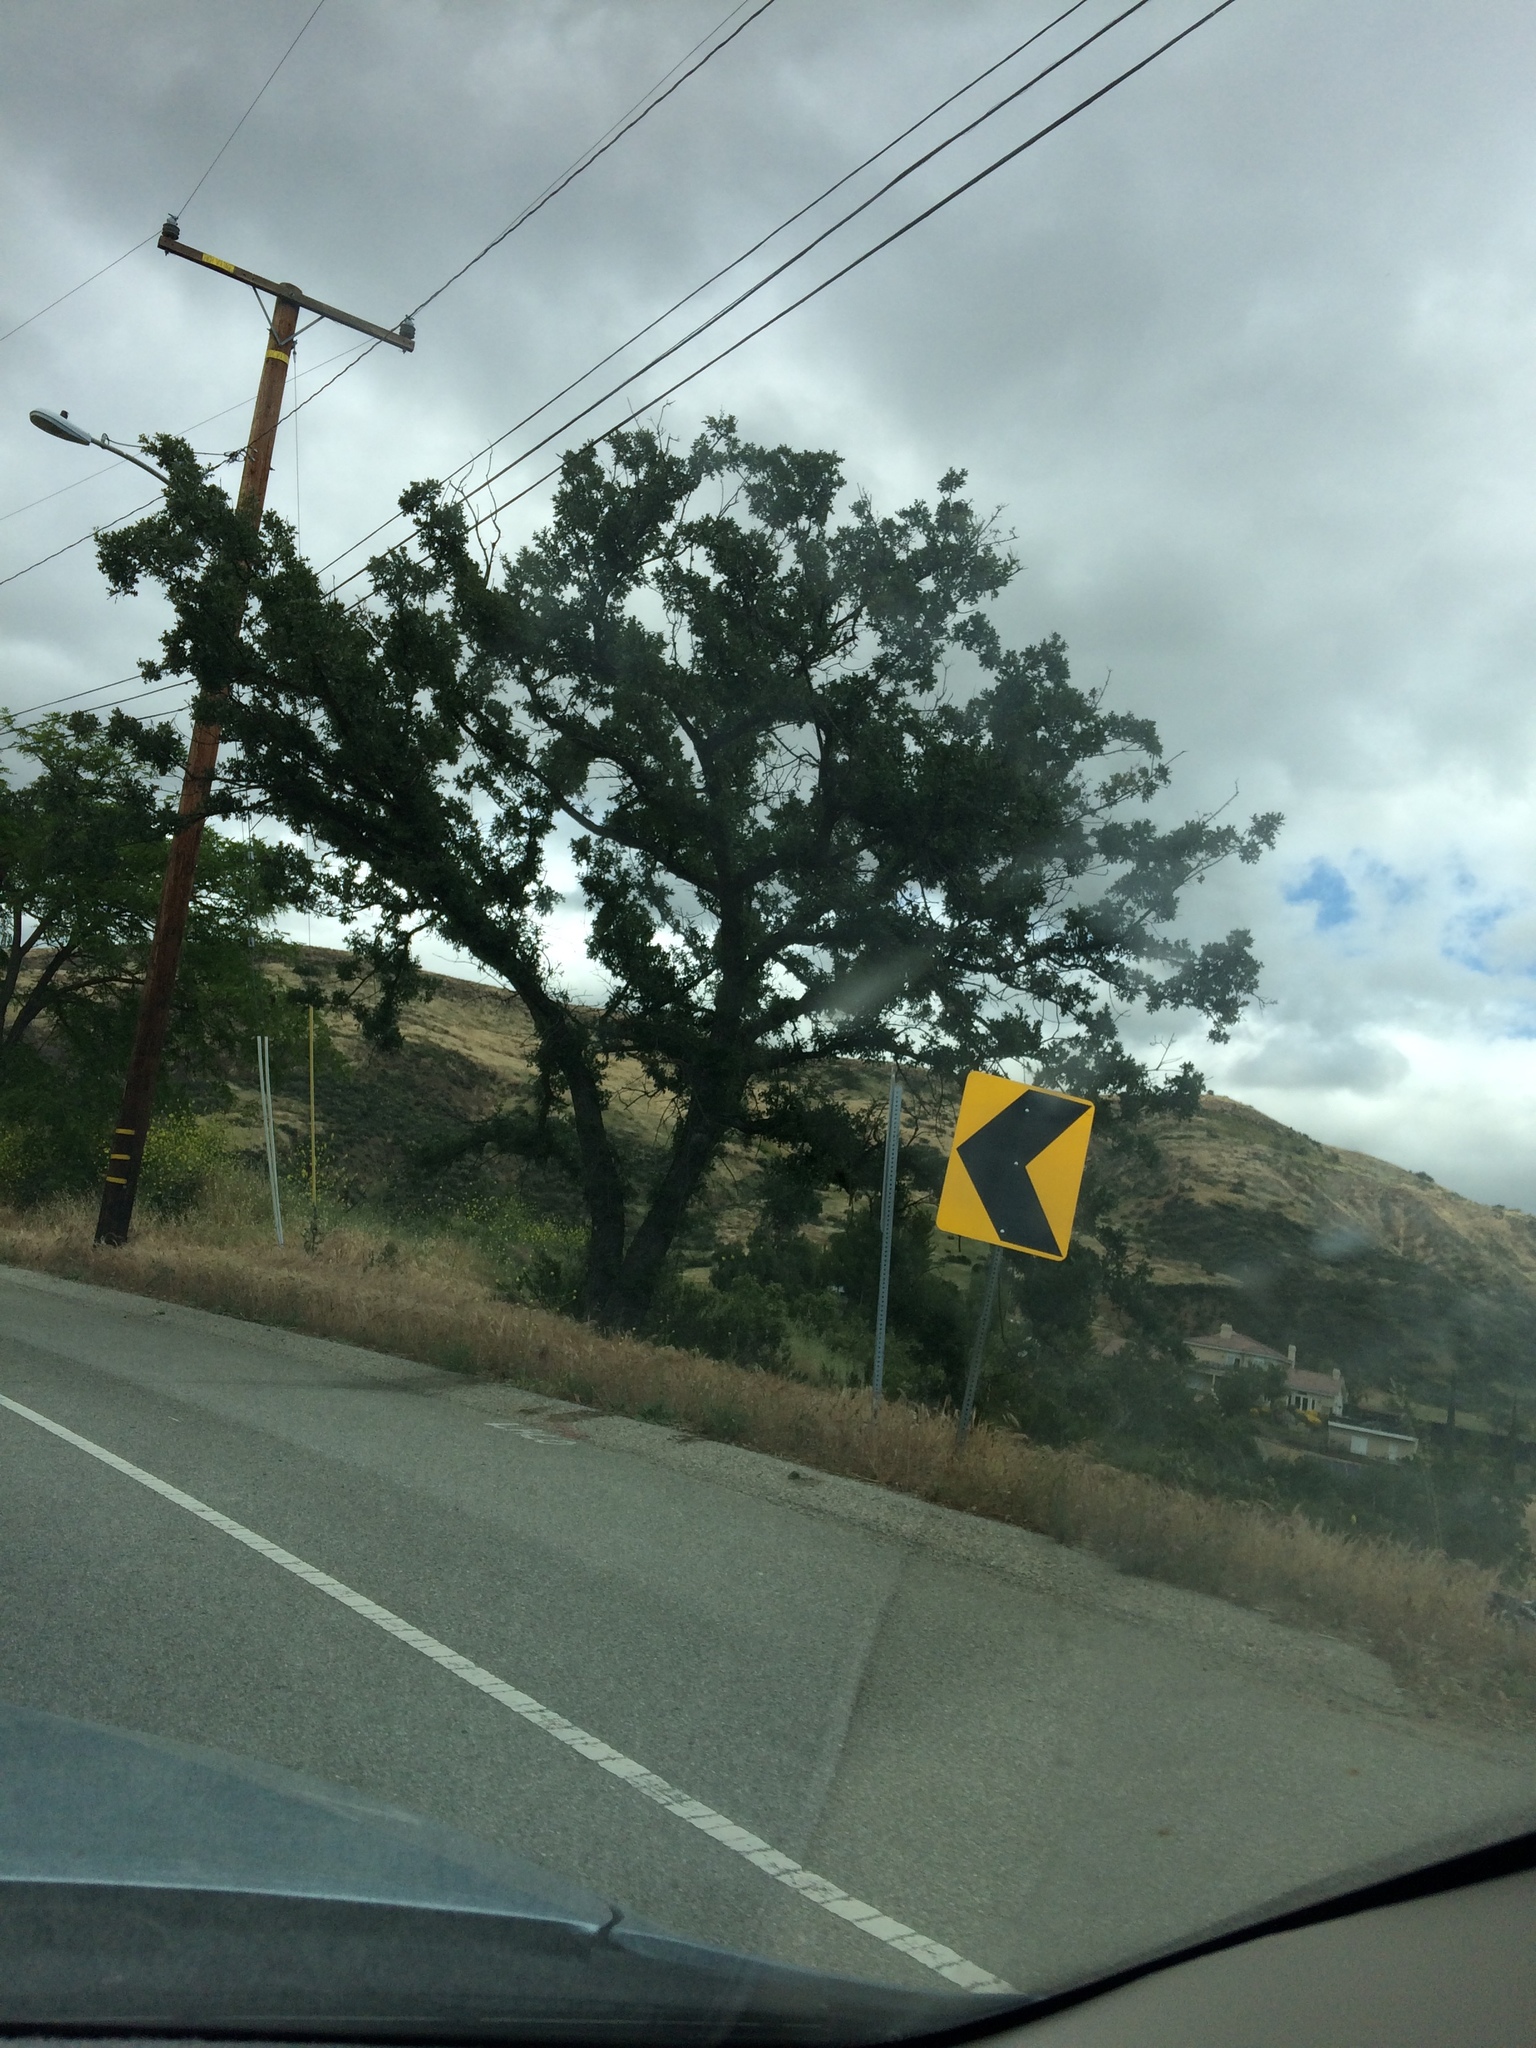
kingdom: Plantae
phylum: Tracheophyta
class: Magnoliopsida
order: Fagales
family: Fagaceae
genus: Quercus
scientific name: Quercus lobata
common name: Valley oak
